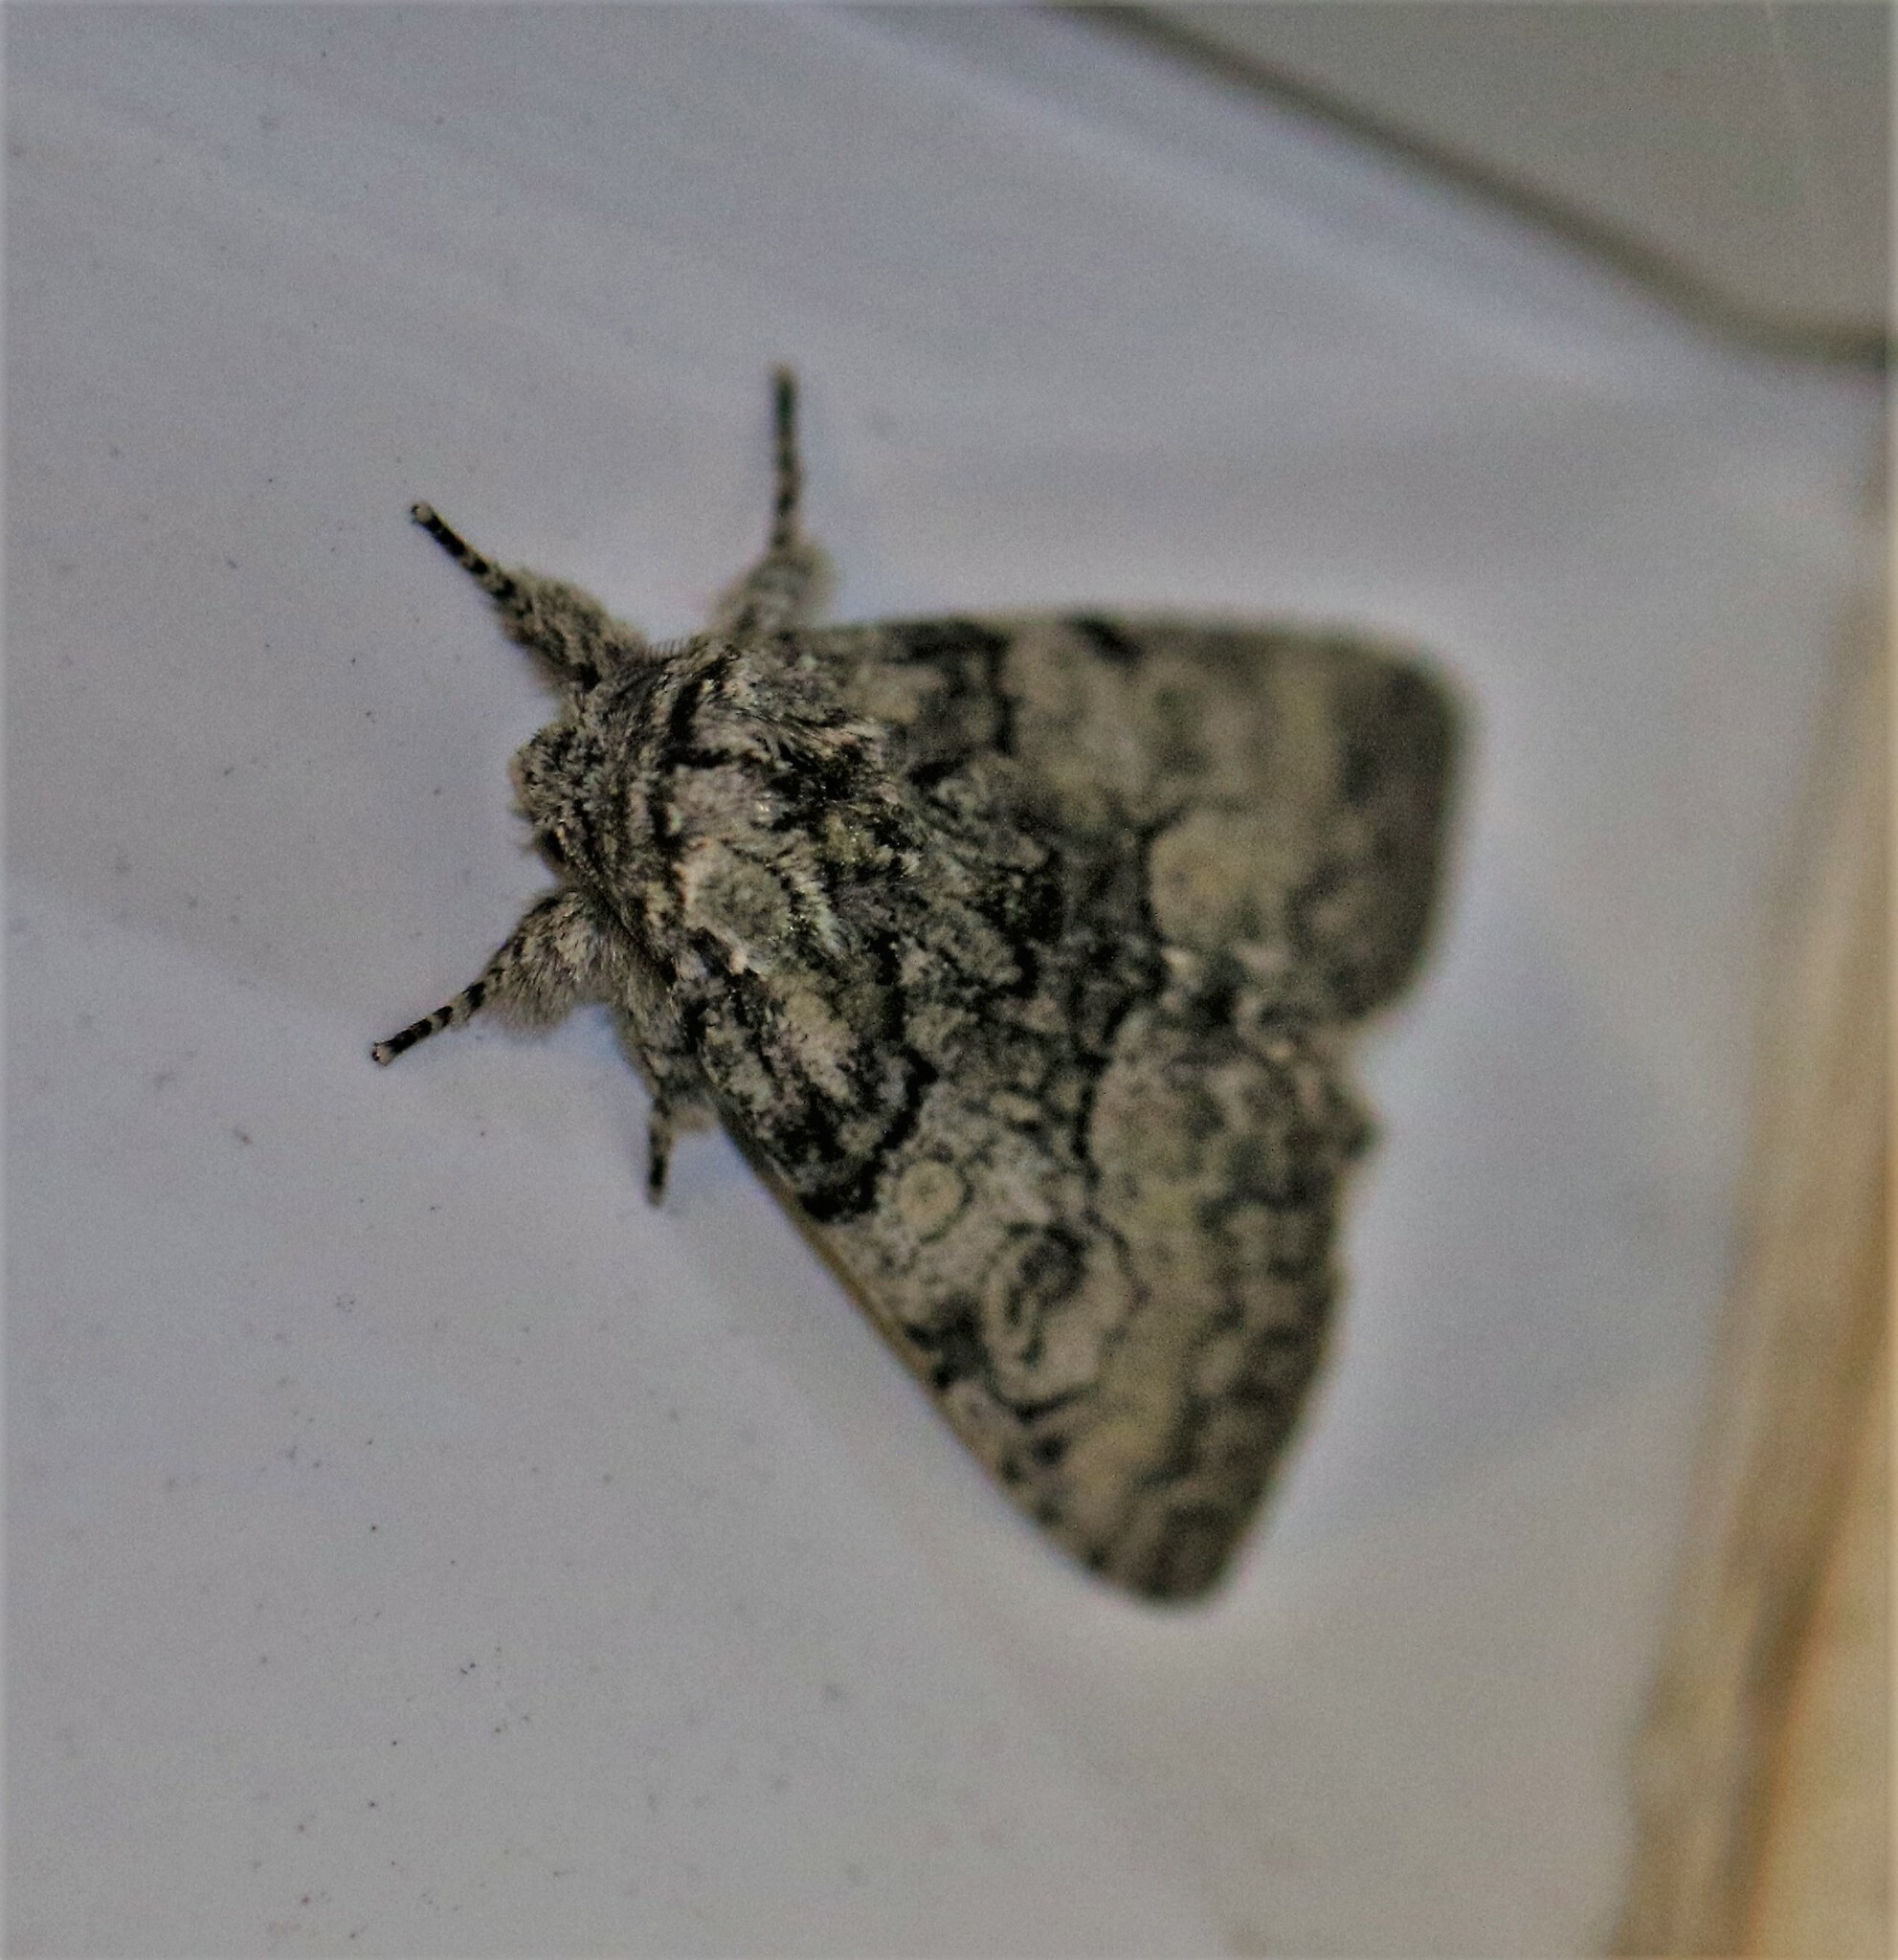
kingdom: Animalia
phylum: Arthropoda
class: Insecta
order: Lepidoptera
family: Noctuidae
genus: Raphia
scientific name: Raphia frater
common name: Brother
